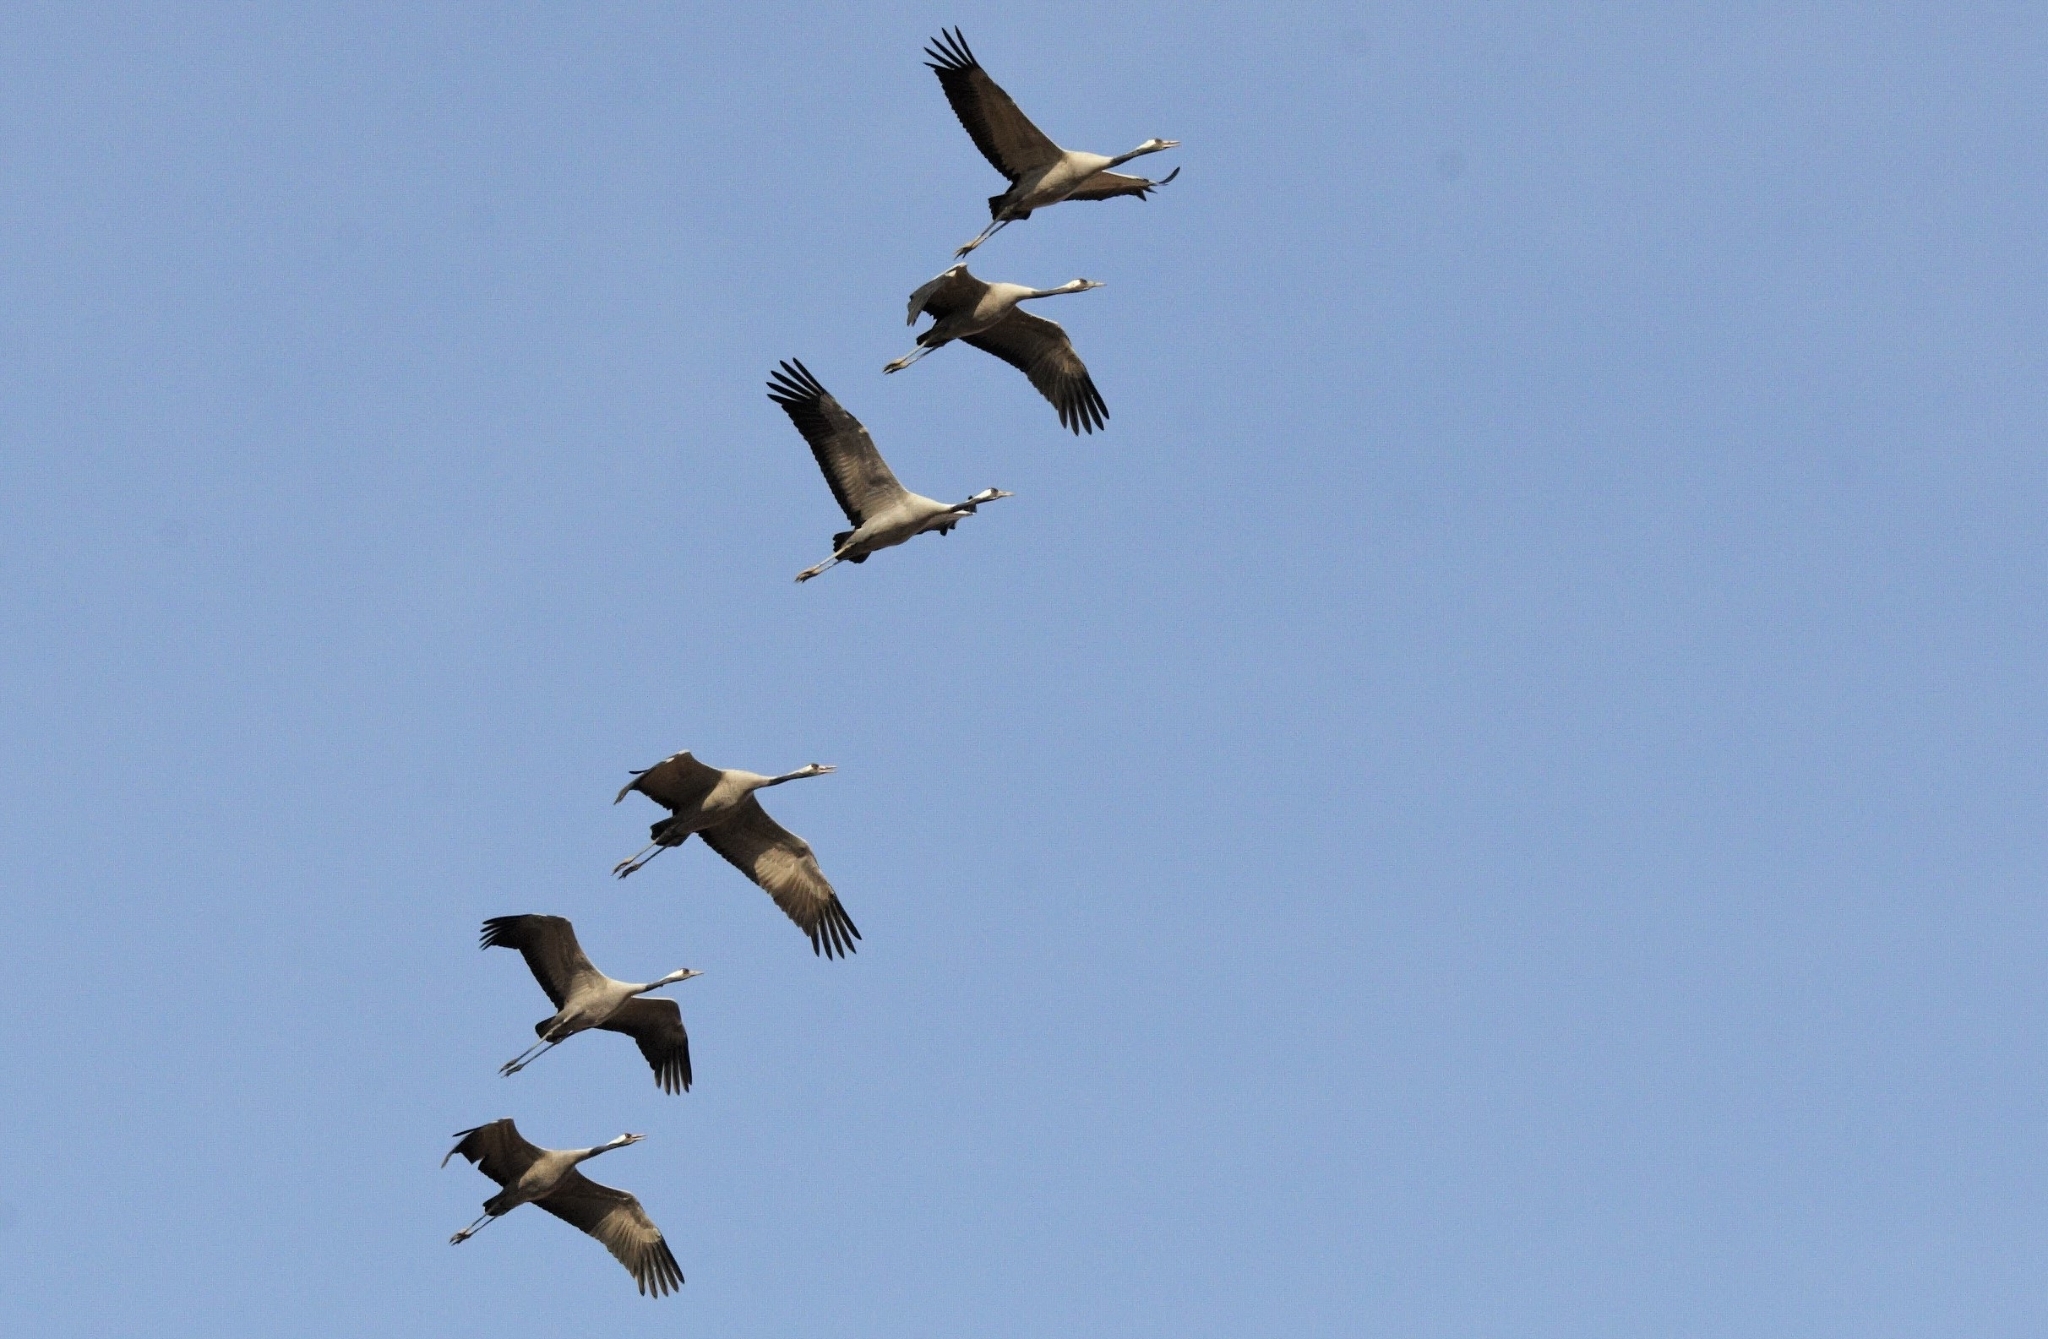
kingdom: Animalia
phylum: Chordata
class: Aves
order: Gruiformes
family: Gruidae
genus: Grus
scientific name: Grus grus
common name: Common crane
